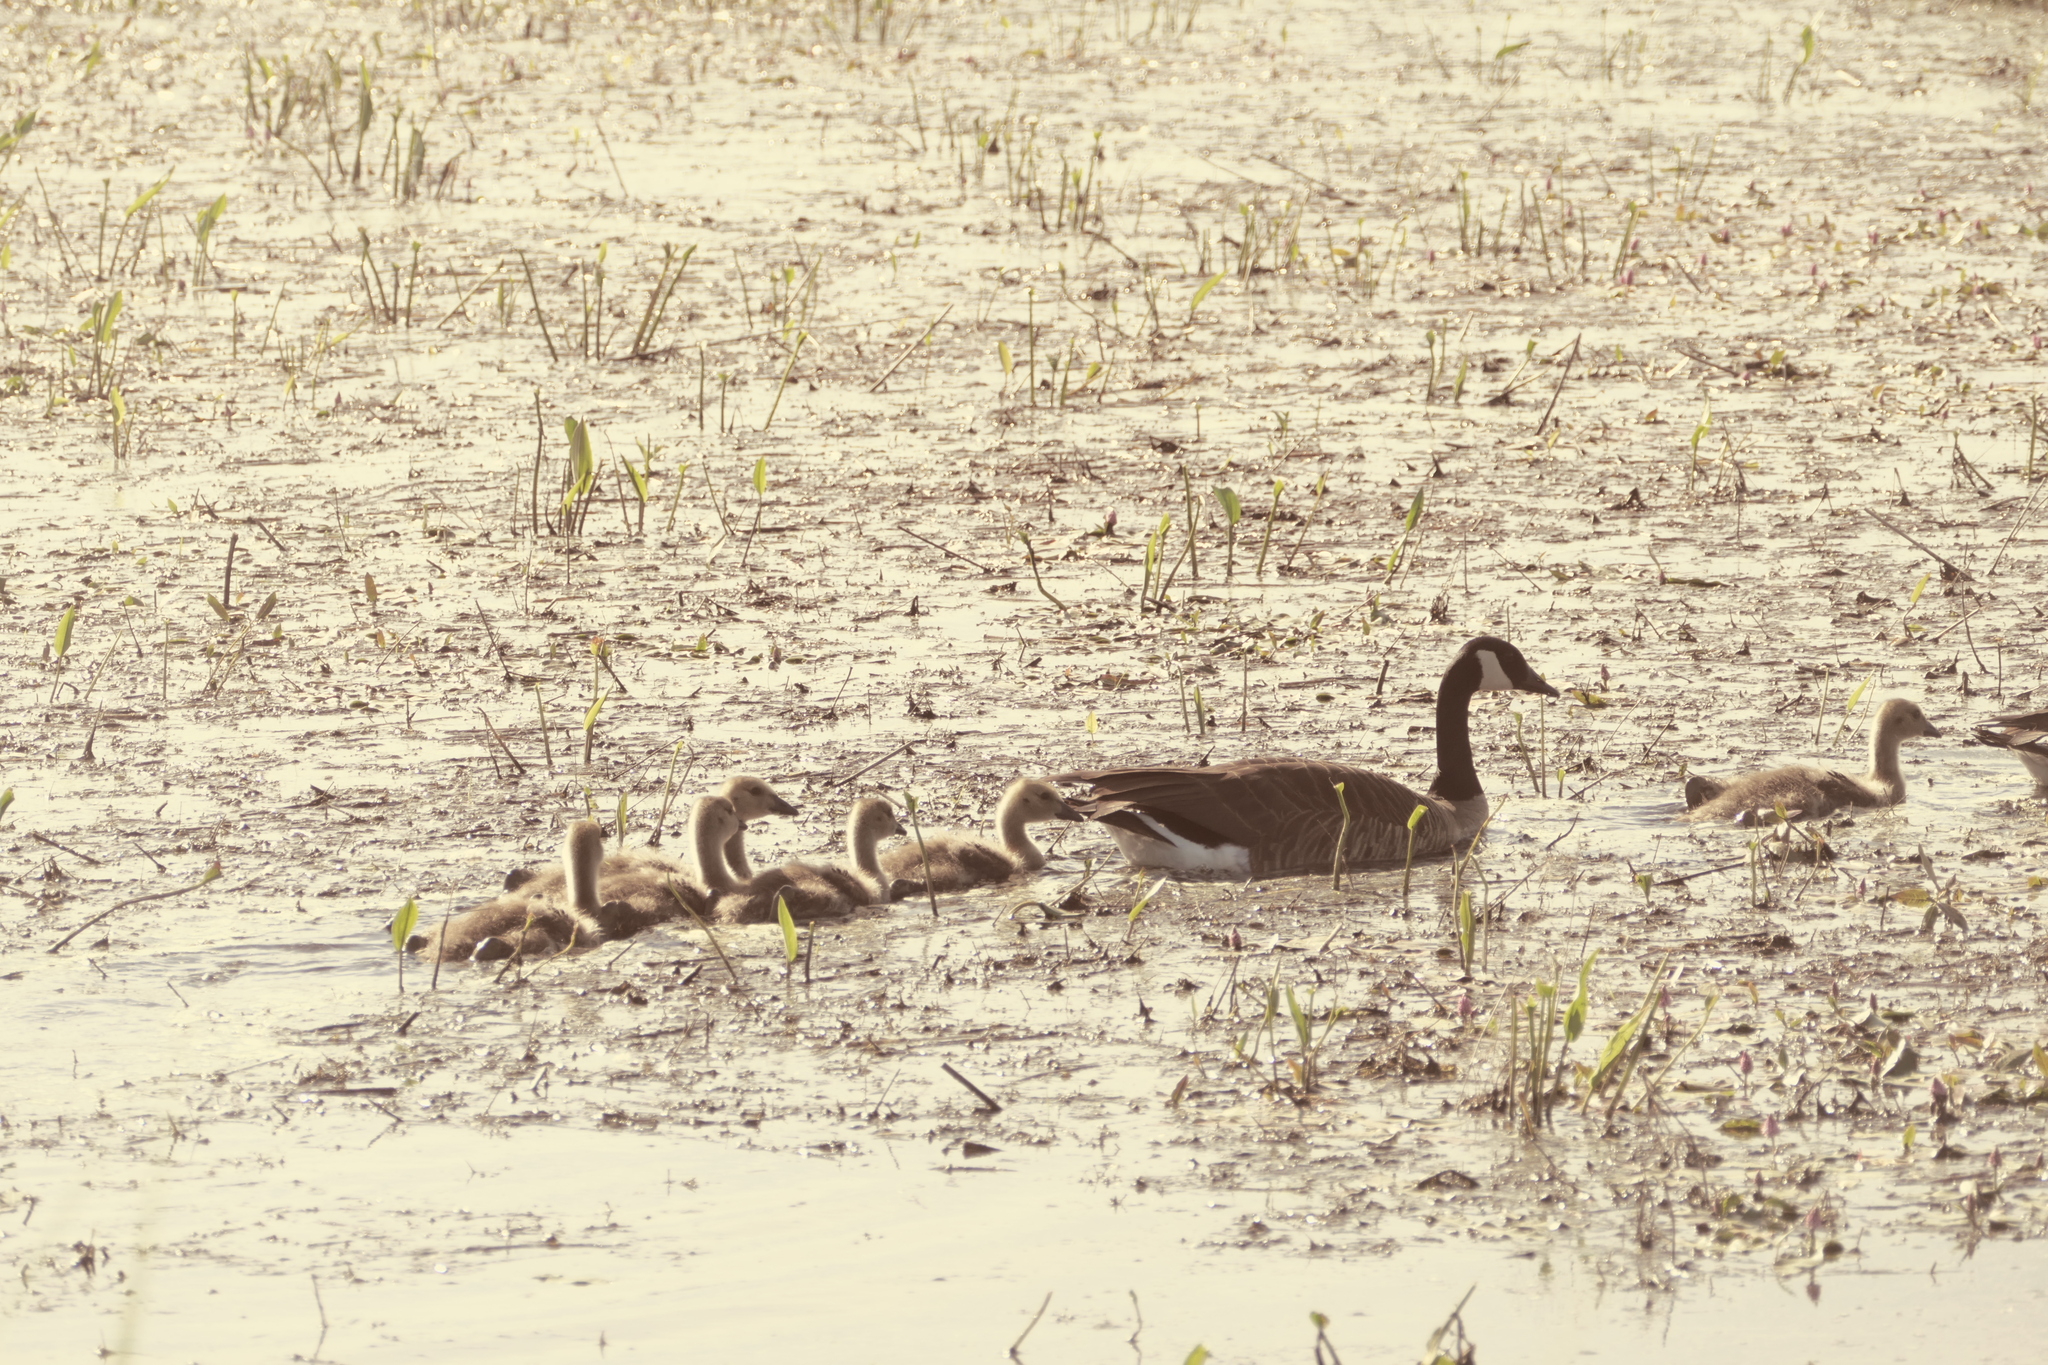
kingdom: Animalia
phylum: Chordata
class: Aves
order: Anseriformes
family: Anatidae
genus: Branta
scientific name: Branta canadensis
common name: Canada goose
